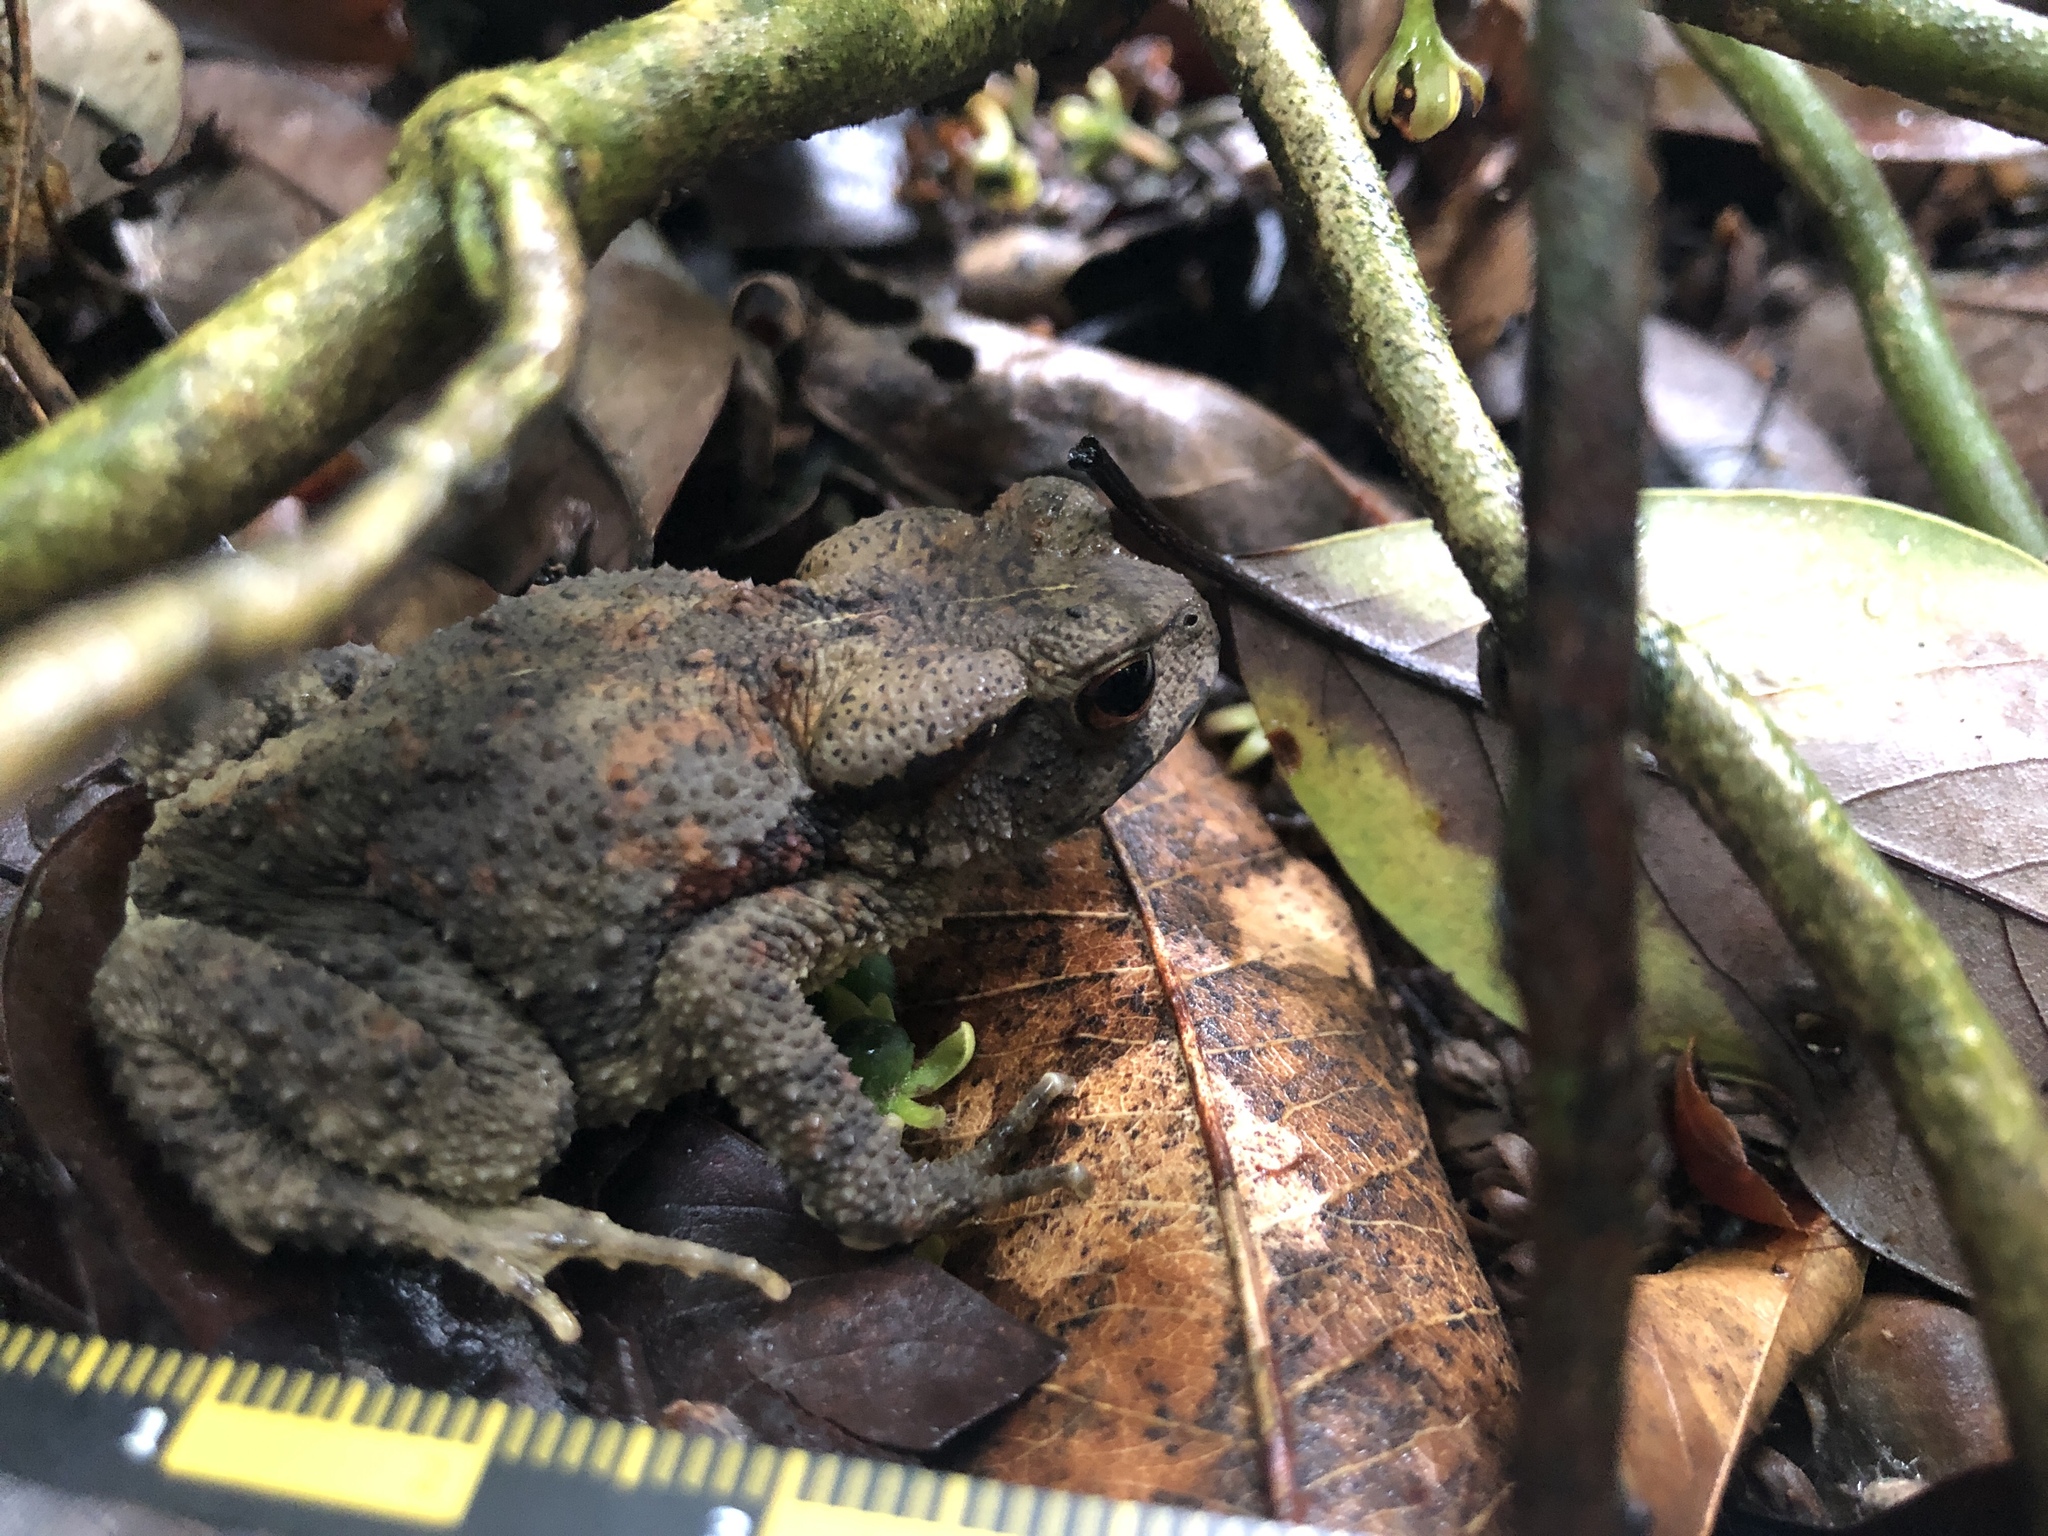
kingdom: Animalia
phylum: Chordata
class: Amphibia
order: Anura
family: Bufonidae
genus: Bufo
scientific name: Bufo bankorensis
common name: Bankor toad
